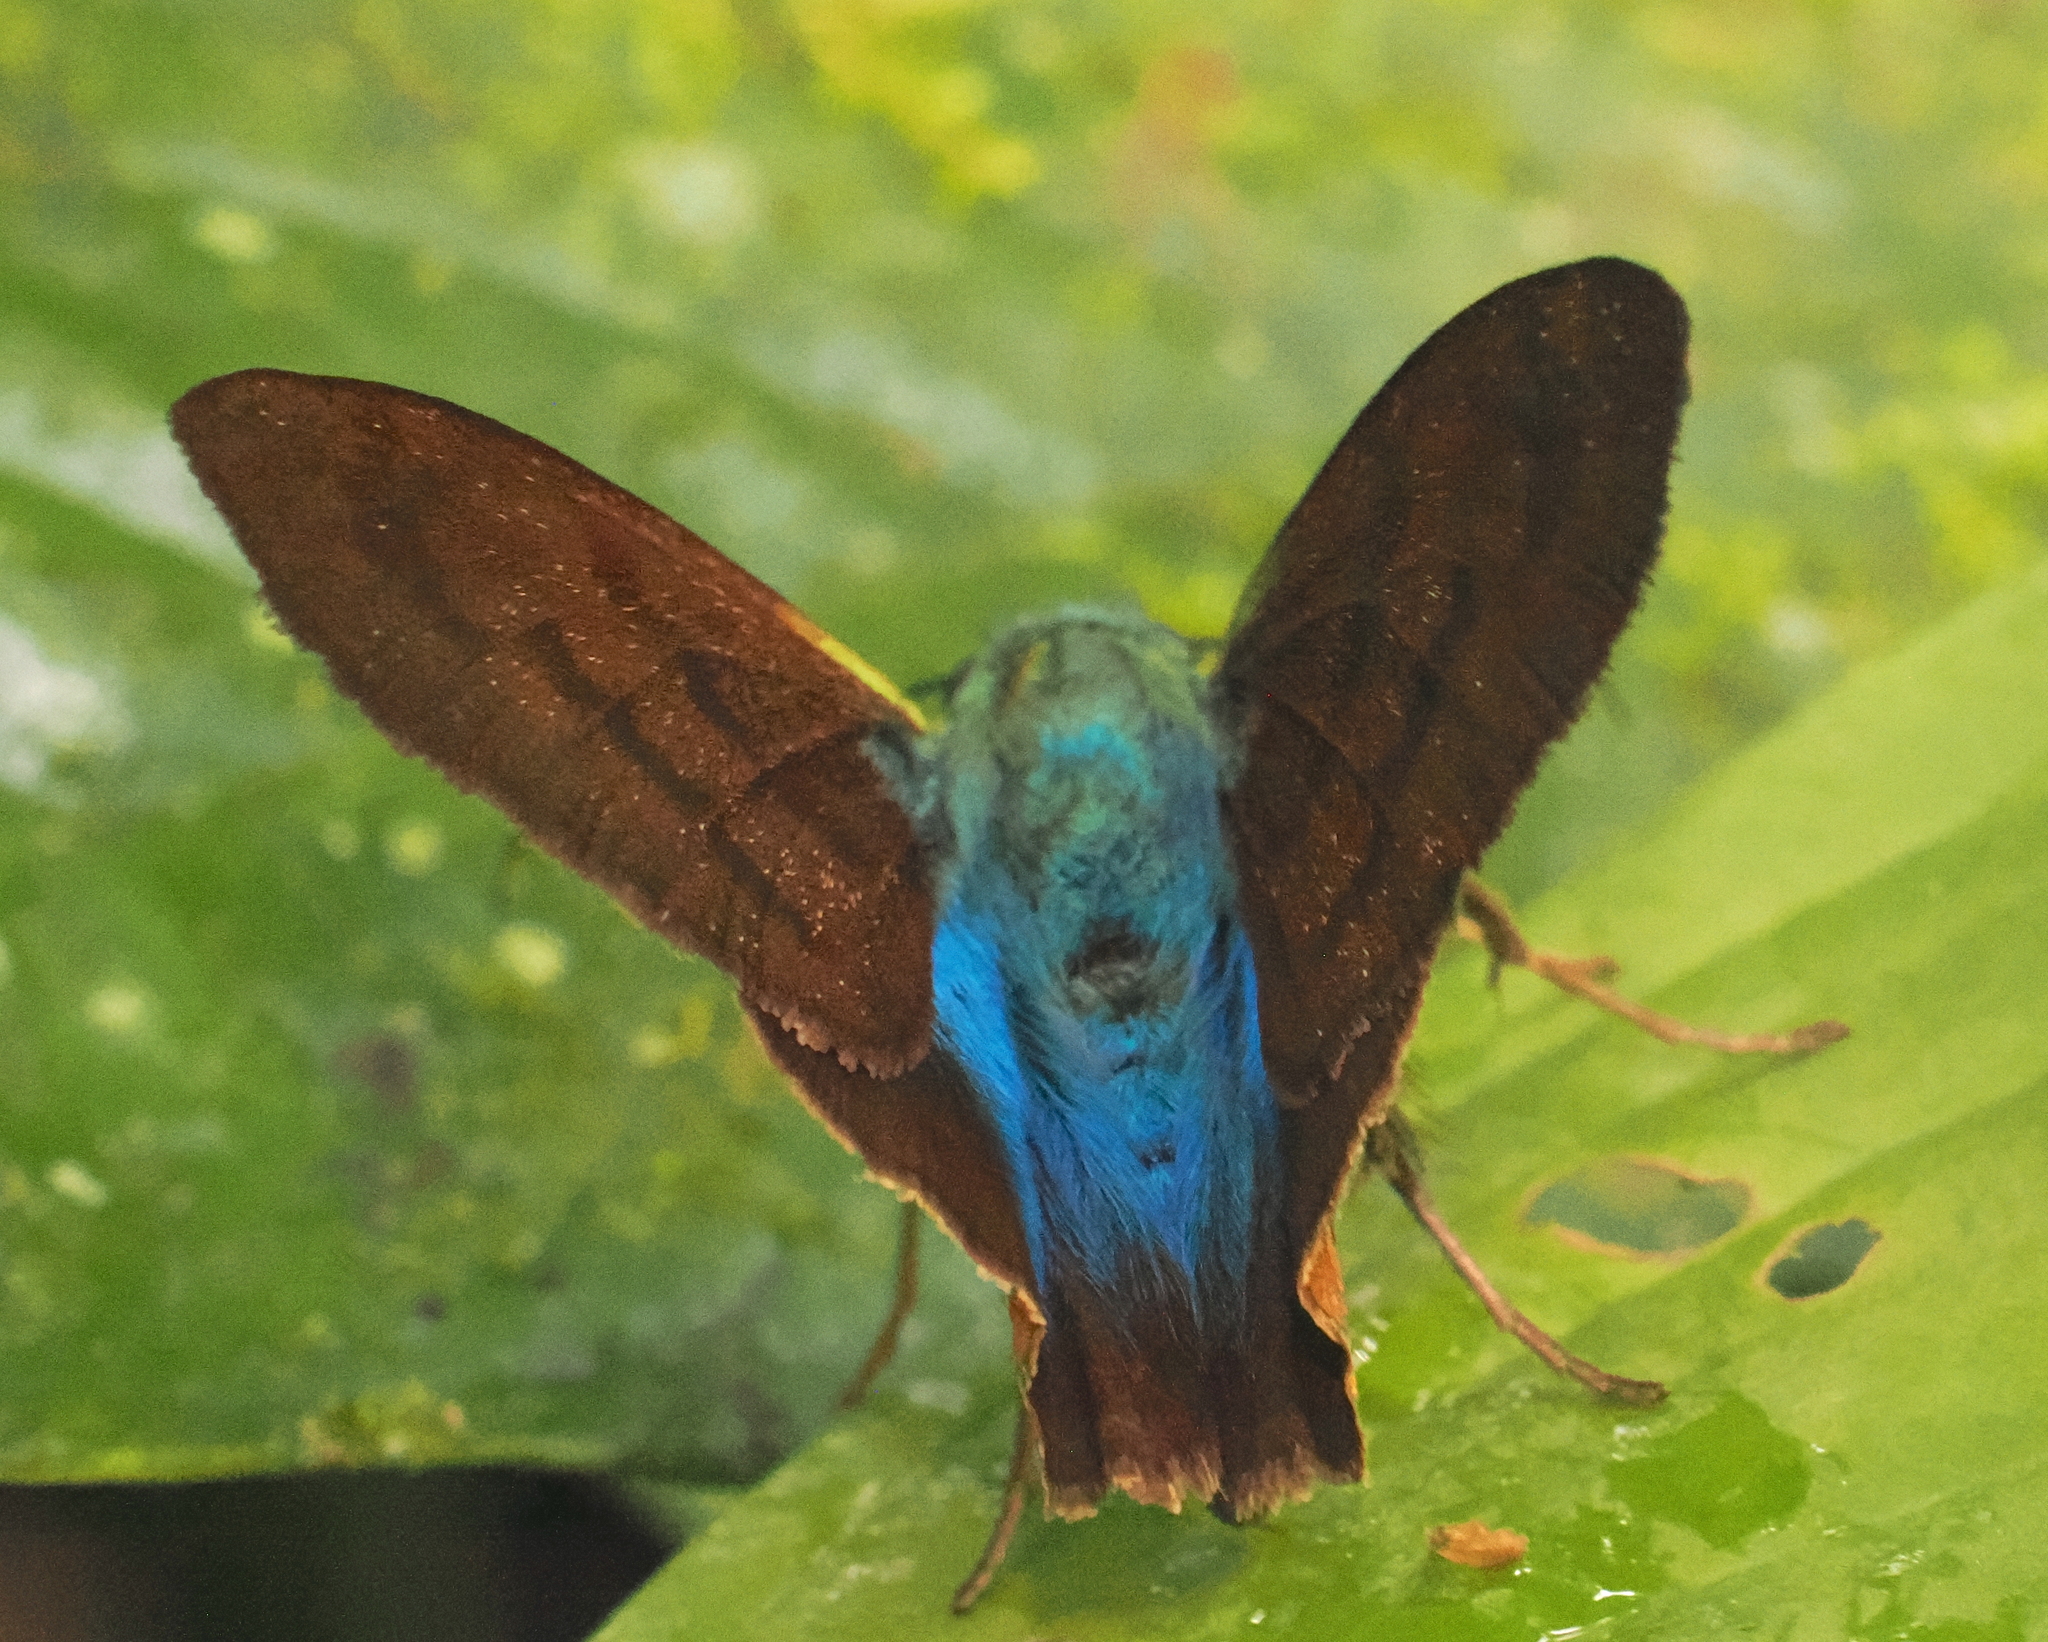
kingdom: Animalia
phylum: Arthropoda
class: Insecta
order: Lepidoptera
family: Hesperiidae
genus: Astraptes
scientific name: Astraptes chiriquensis
